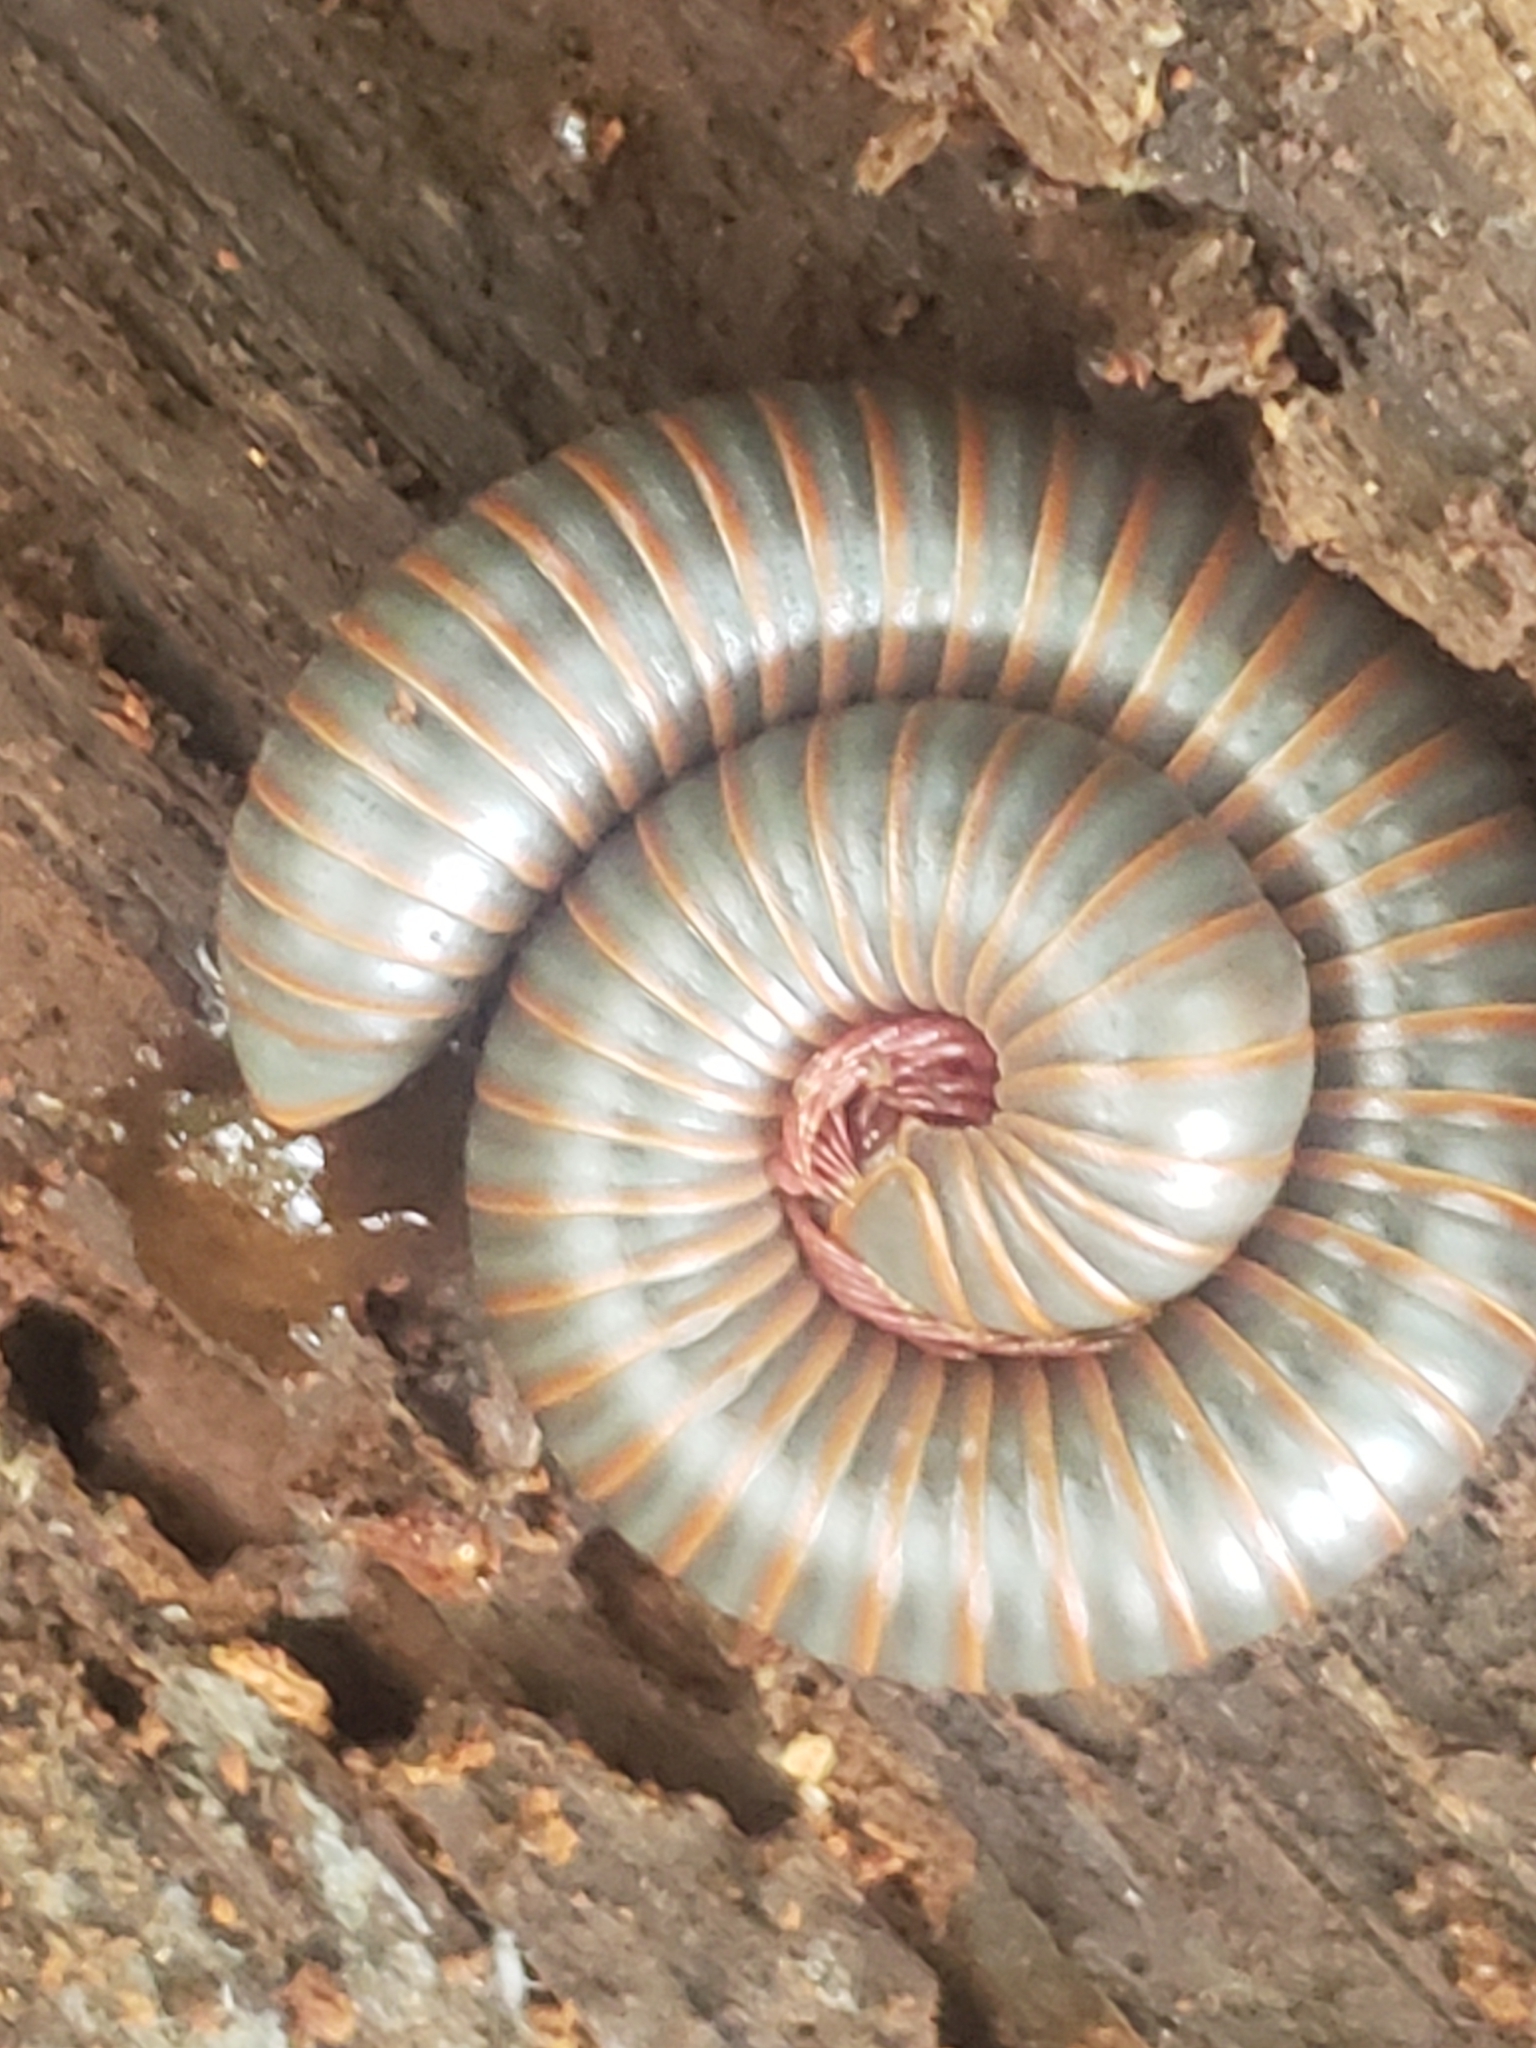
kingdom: Animalia
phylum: Arthropoda
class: Diplopoda
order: Spirobolida
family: Spirobolidae
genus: Narceus
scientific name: Narceus
